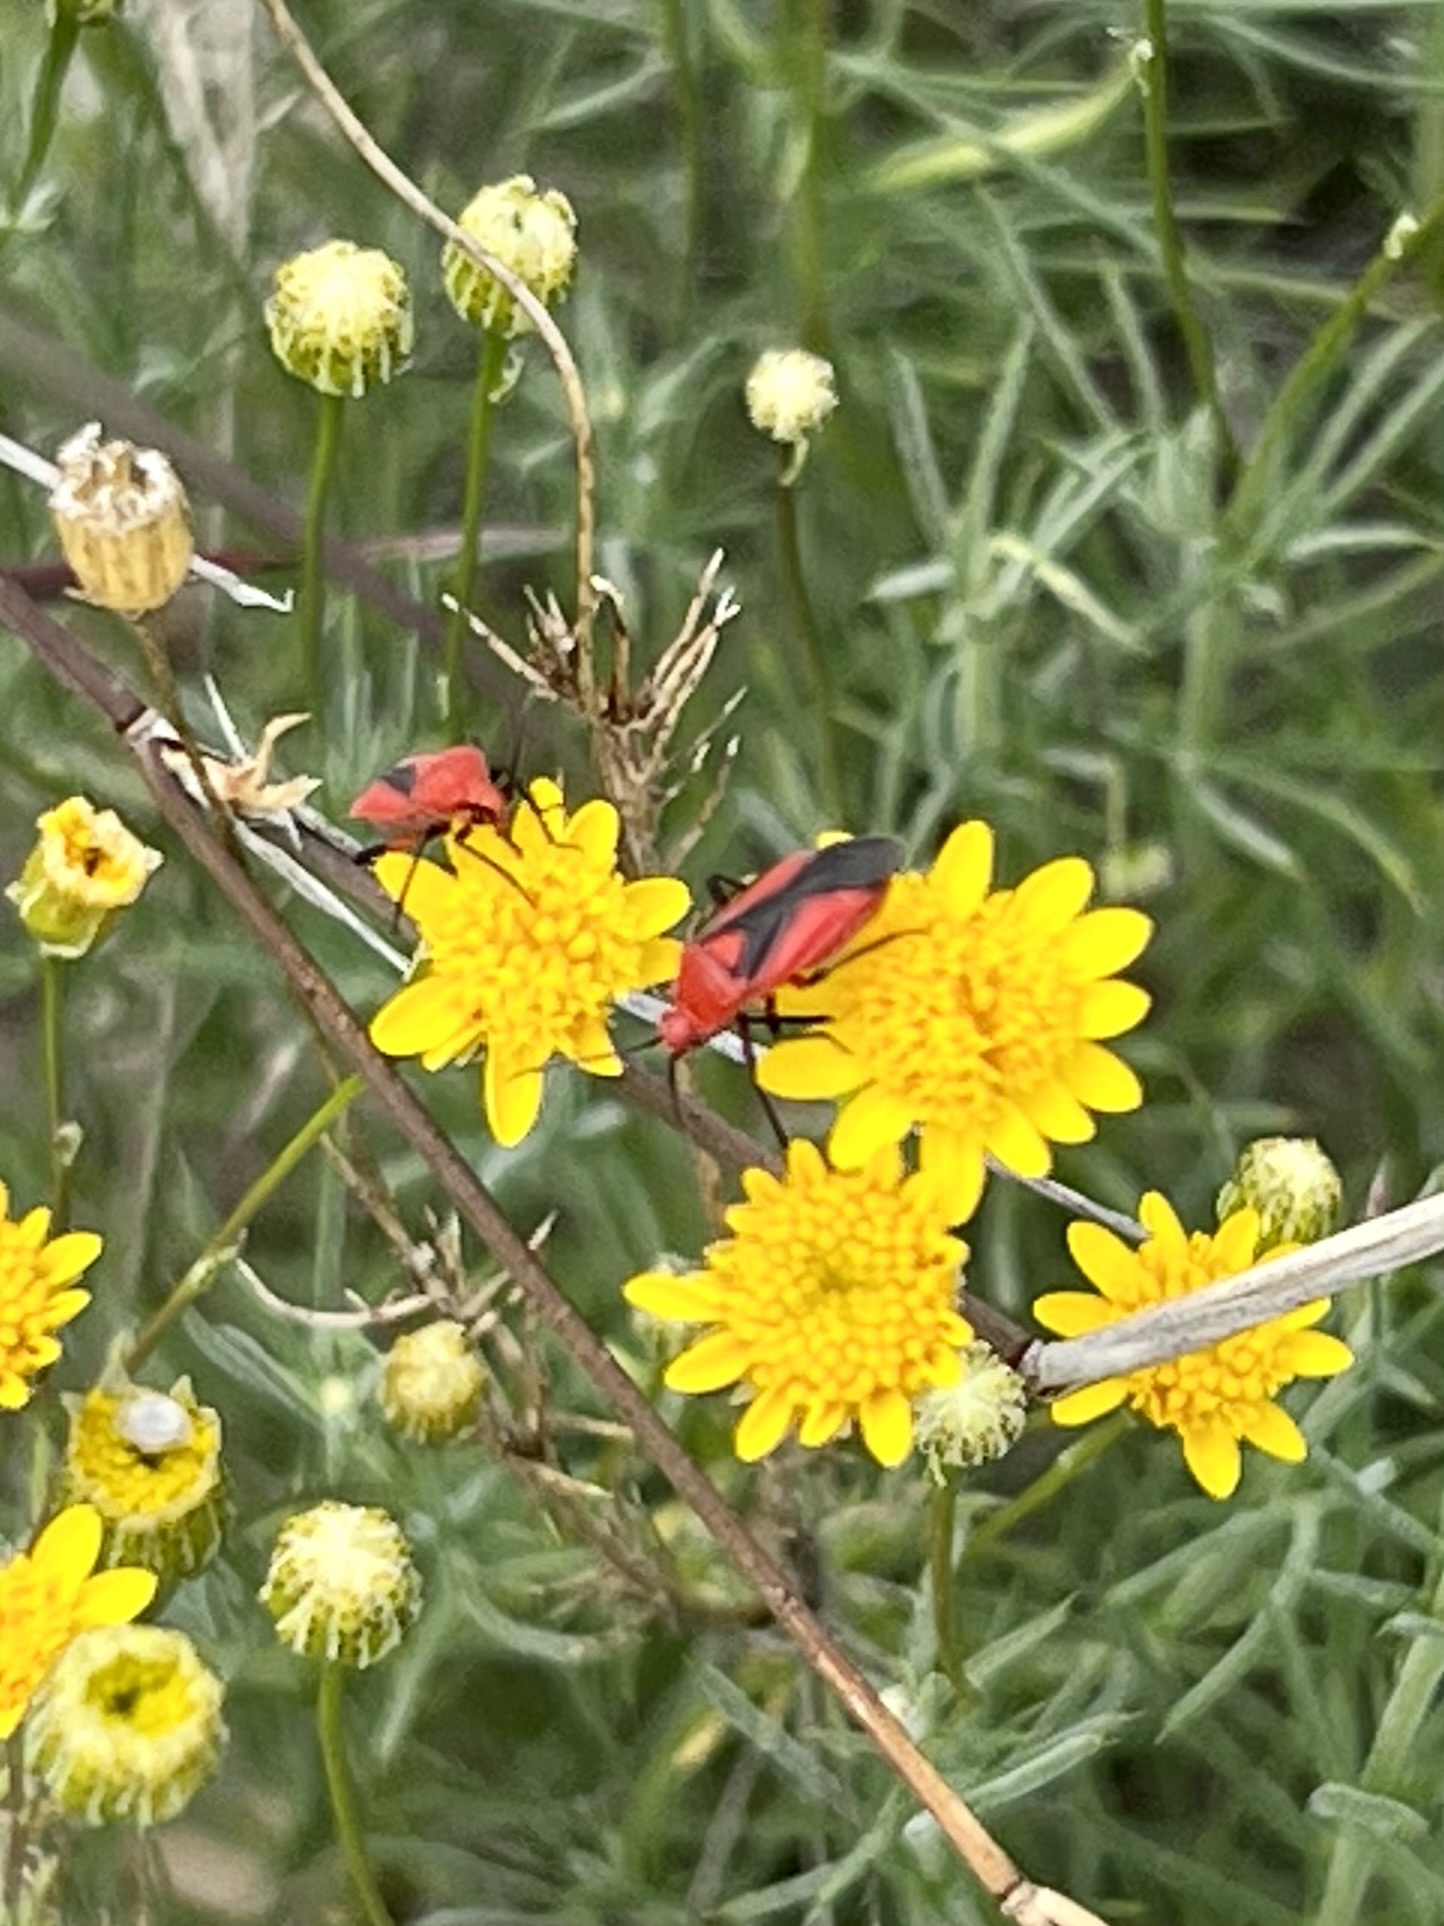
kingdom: Animalia
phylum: Arthropoda
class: Insecta
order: Hemiptera
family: Miridae
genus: Oncerometopus
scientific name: Oncerometopus nigriclavus
